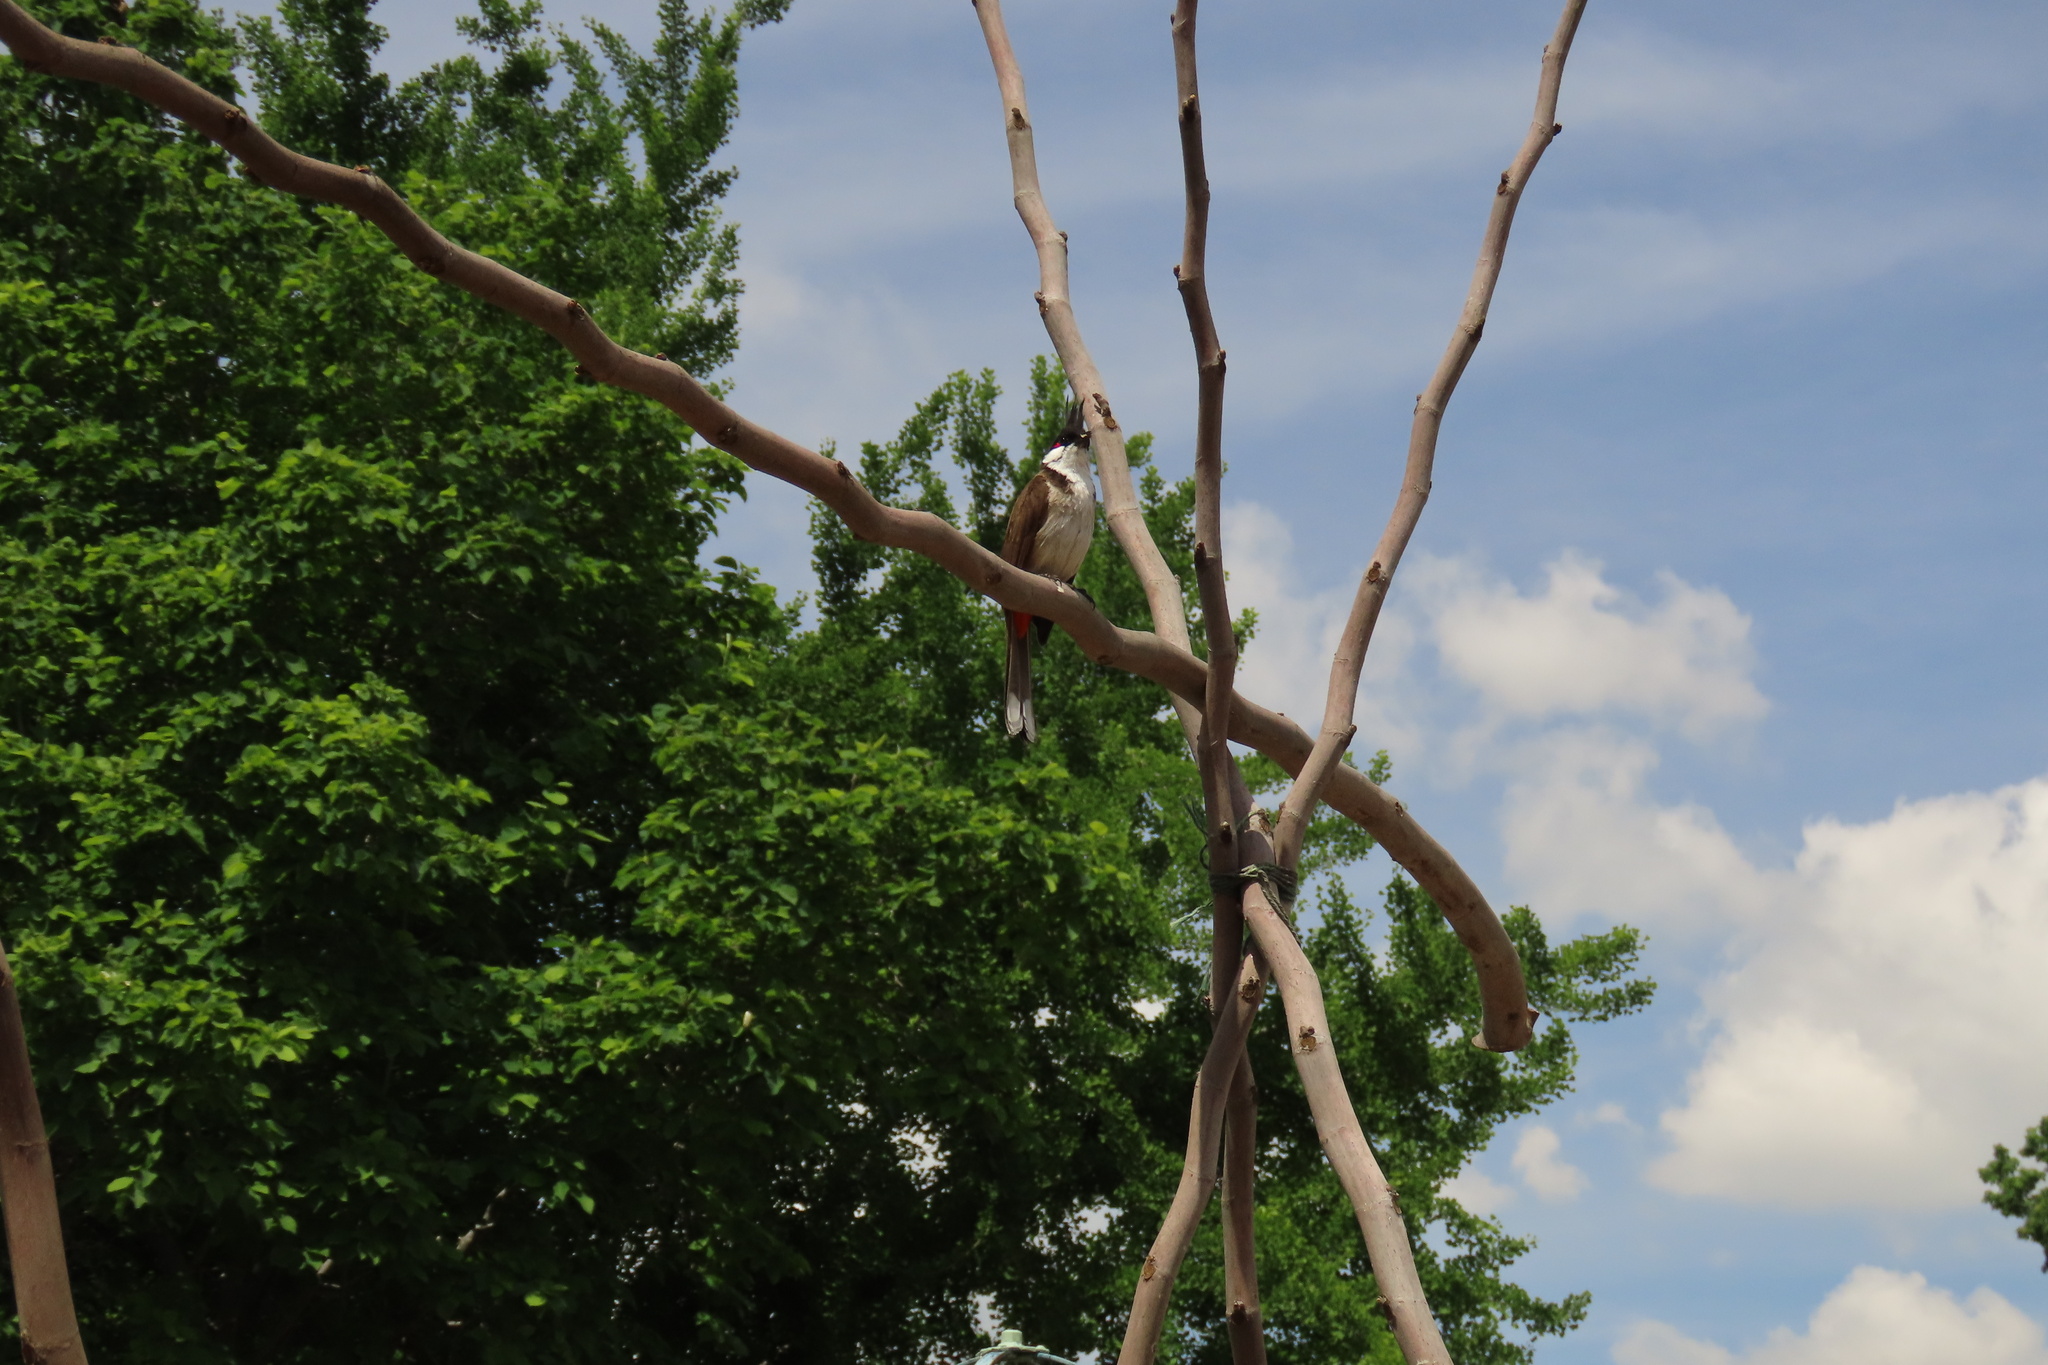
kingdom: Animalia
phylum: Chordata
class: Aves
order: Passeriformes
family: Pycnonotidae
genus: Pycnonotus
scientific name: Pycnonotus jocosus
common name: Red-whiskered bulbul
